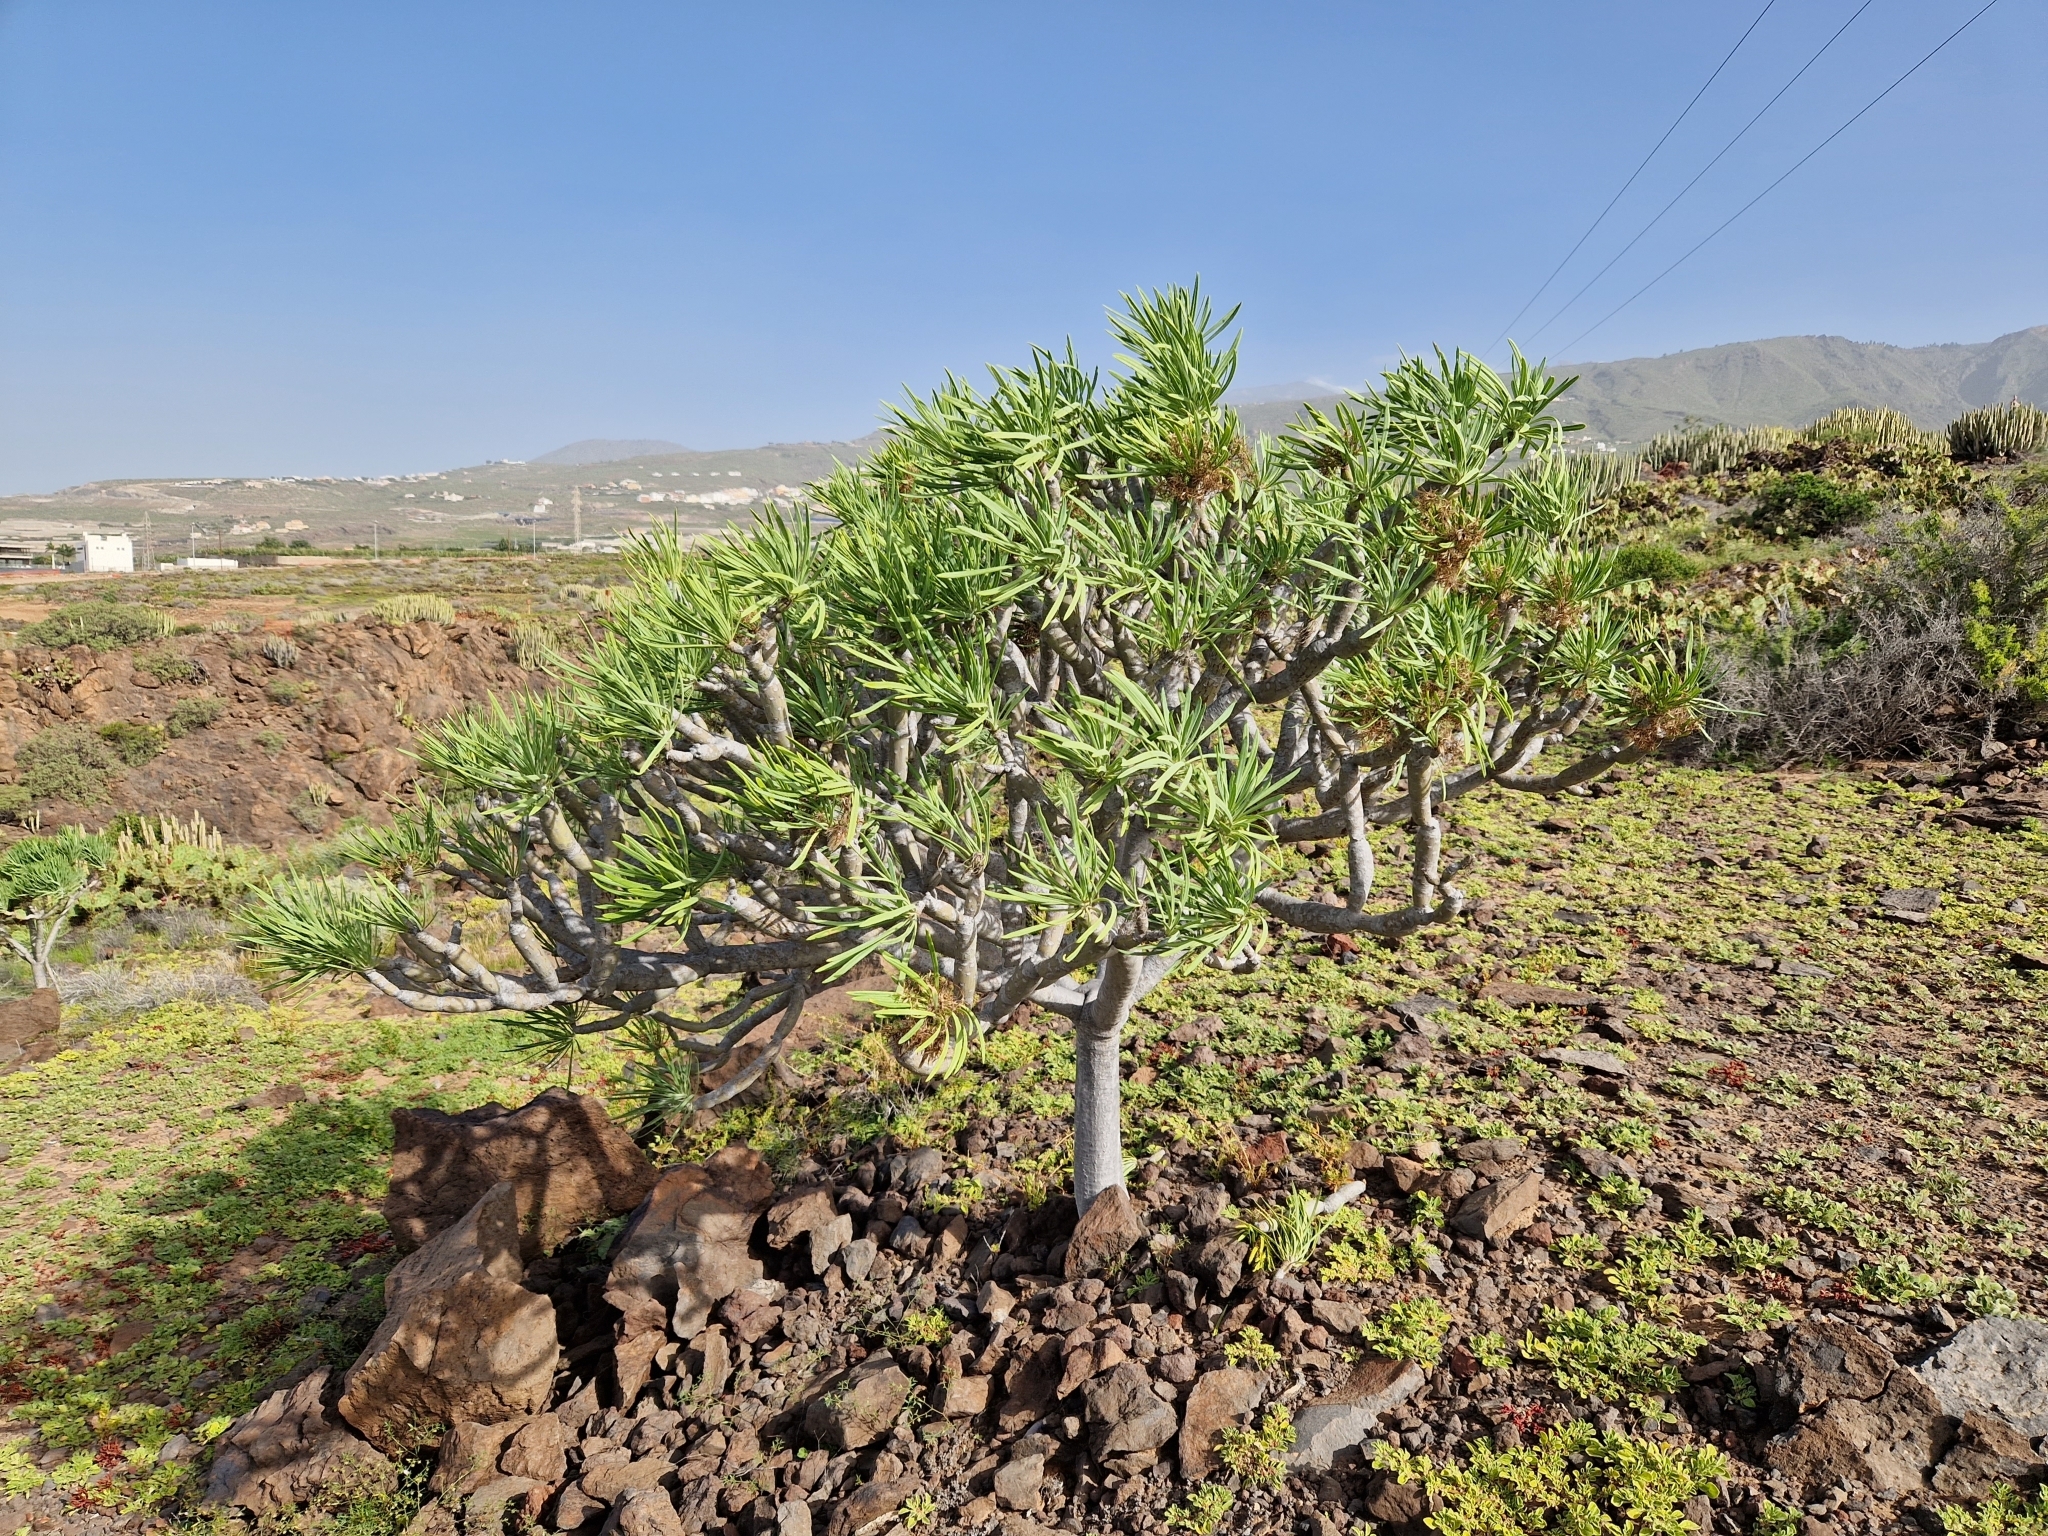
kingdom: Plantae
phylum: Tracheophyta
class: Magnoliopsida
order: Asterales
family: Asteraceae
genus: Kleinia
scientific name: Kleinia neriifolia
